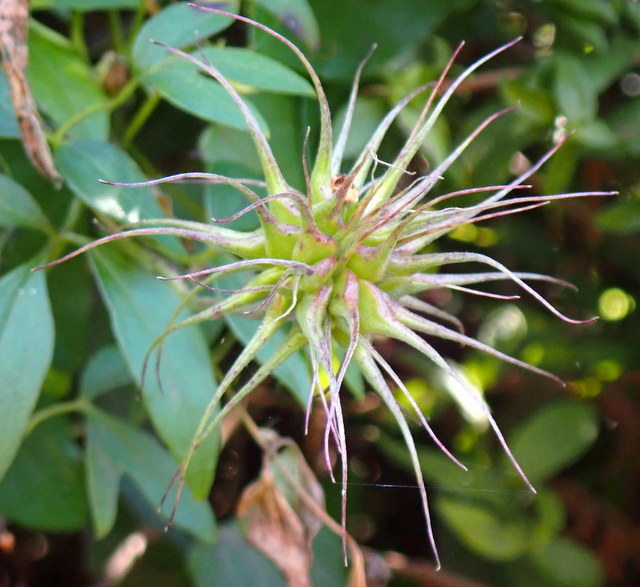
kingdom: Plantae
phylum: Tracheophyta
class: Magnoliopsida
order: Ranunculales
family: Ranunculaceae
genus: Clematis
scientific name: Clematis crispa
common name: Curly clematis
